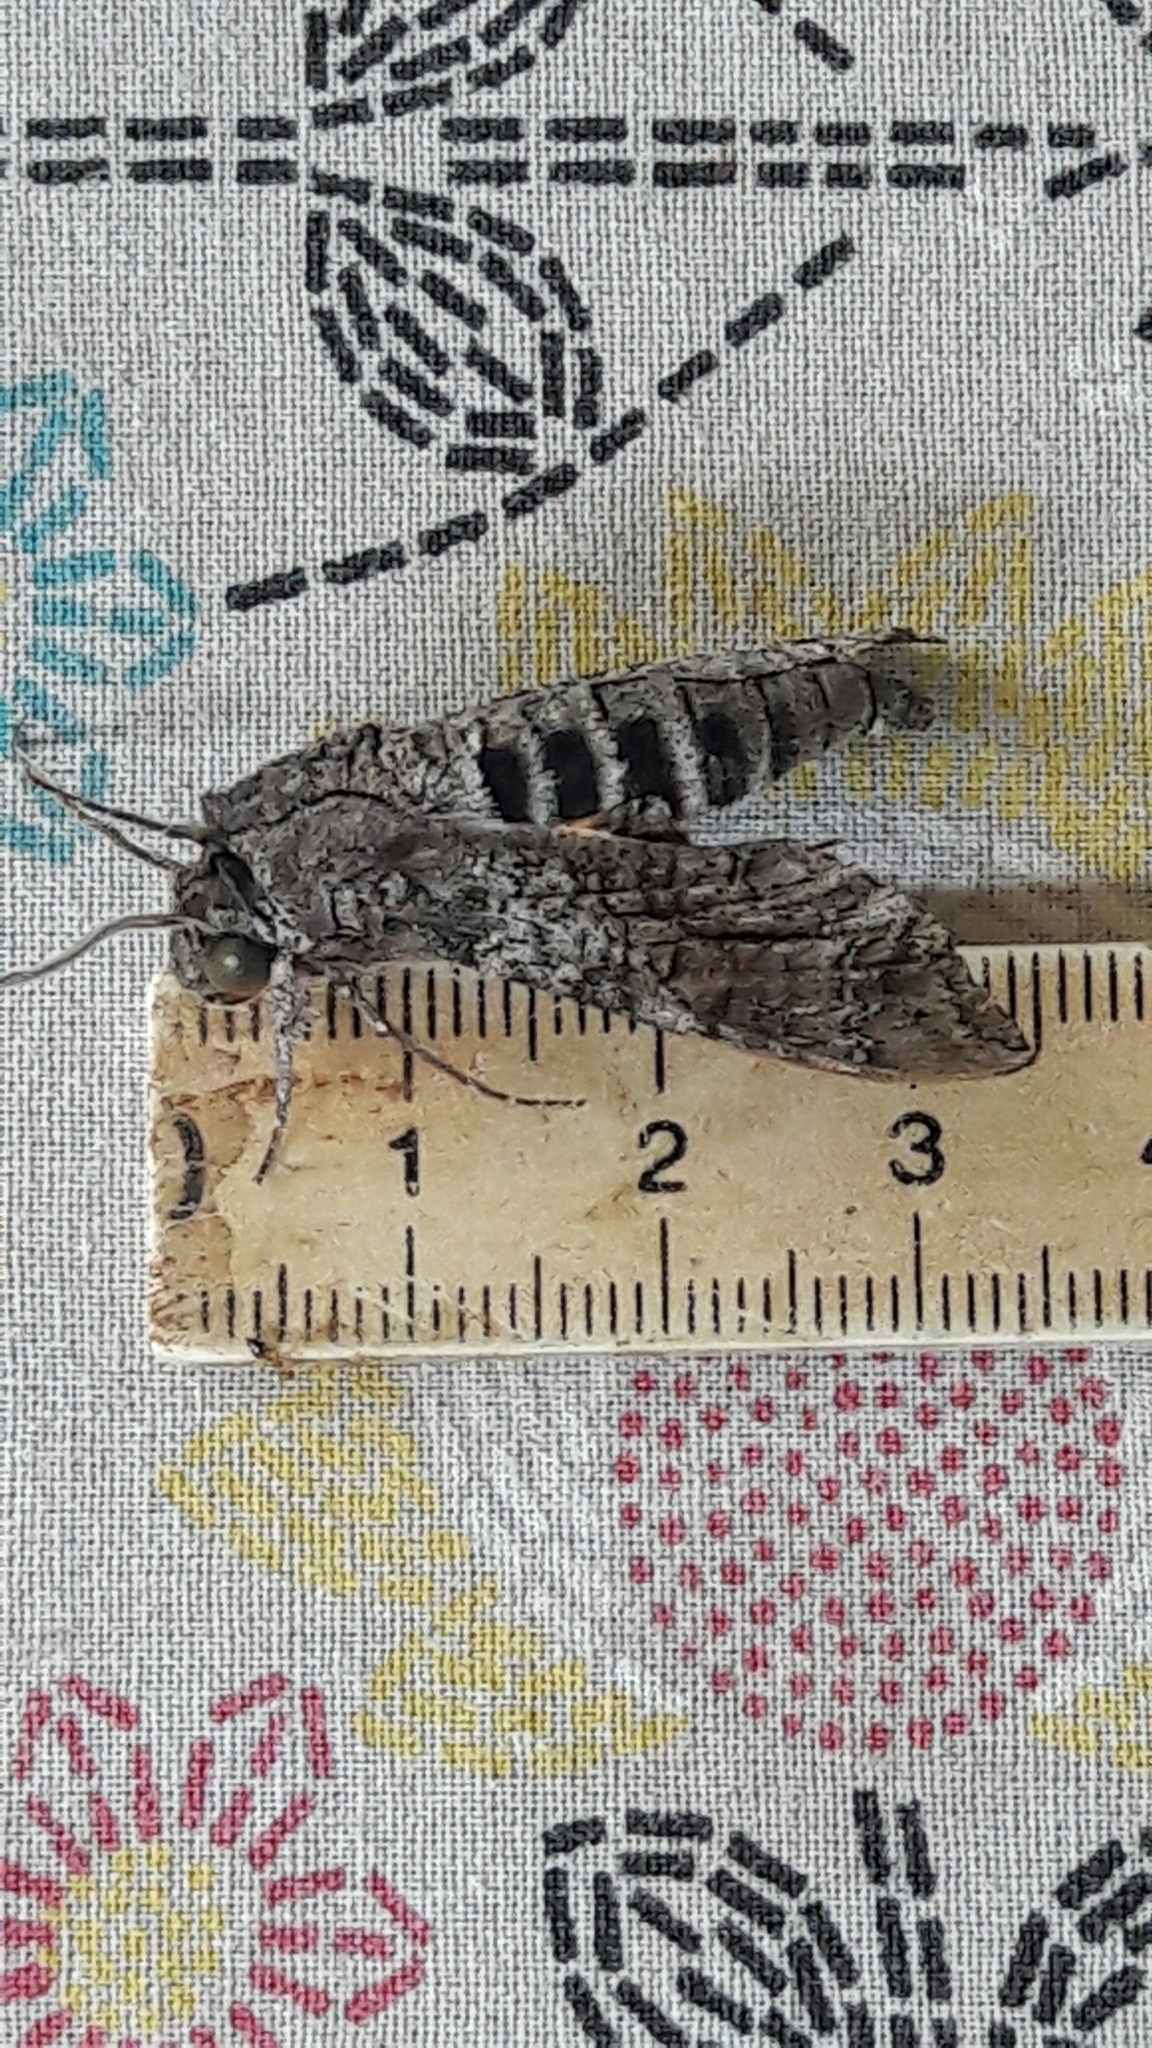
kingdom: Animalia
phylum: Arthropoda
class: Insecta
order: Lepidoptera
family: Sphingidae
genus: Isognathus
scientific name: Isognathus allamandae
